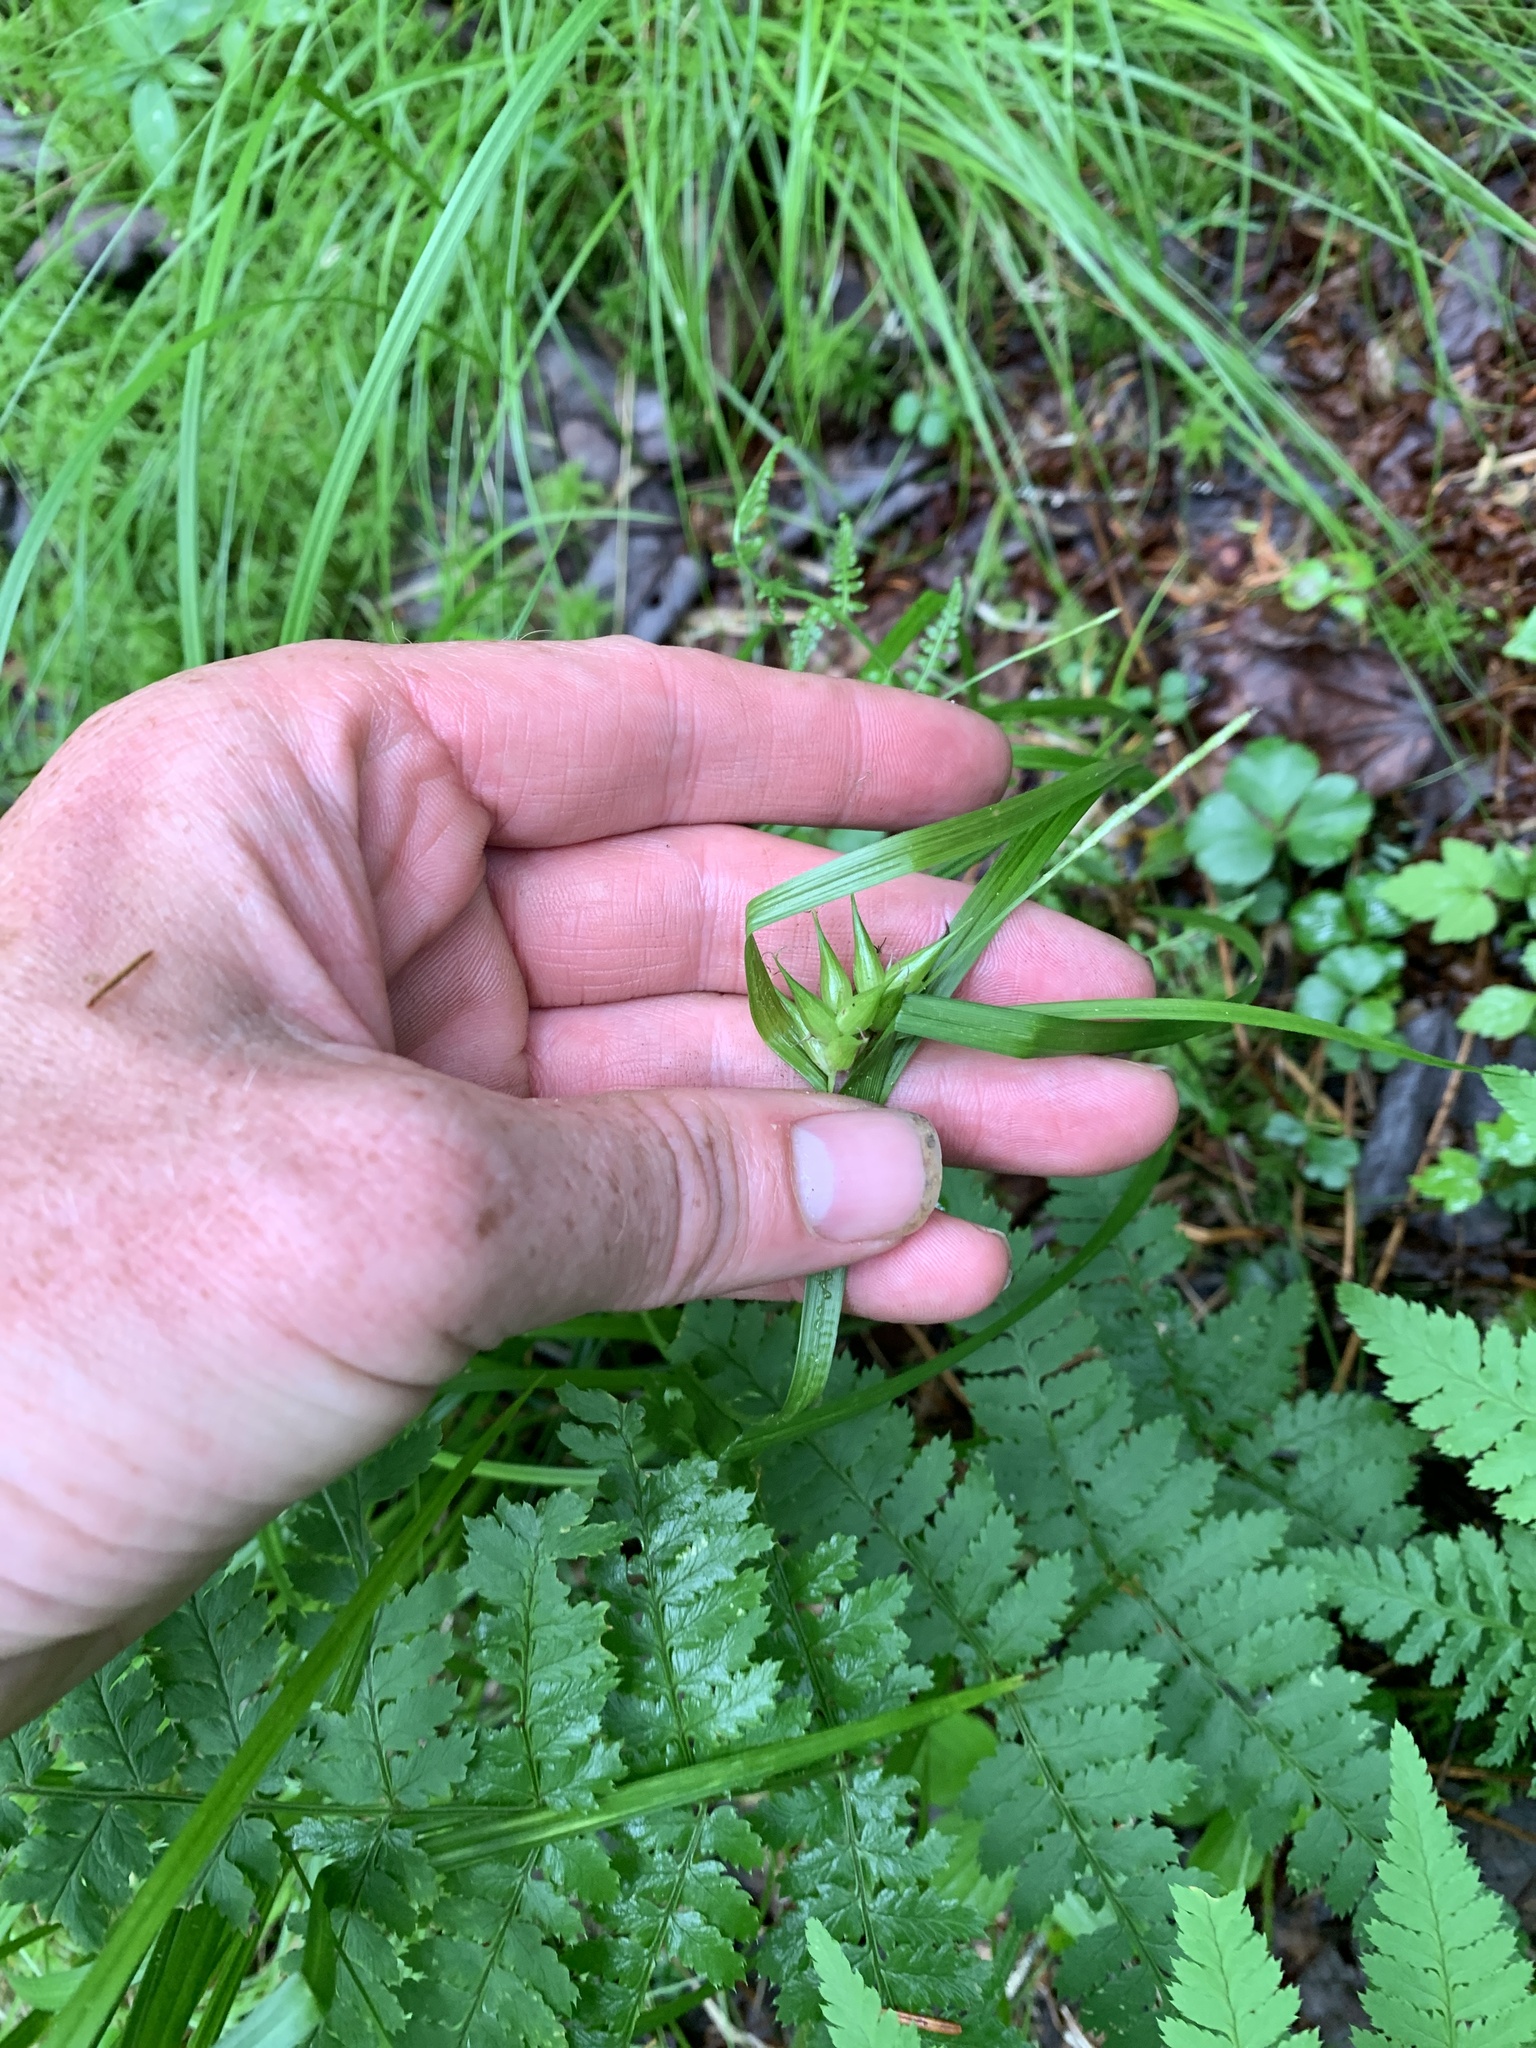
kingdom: Plantae
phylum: Tracheophyta
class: Liliopsida
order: Poales
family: Cyperaceae
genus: Carex
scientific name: Carex intumescens
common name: Greater bladder sedge
